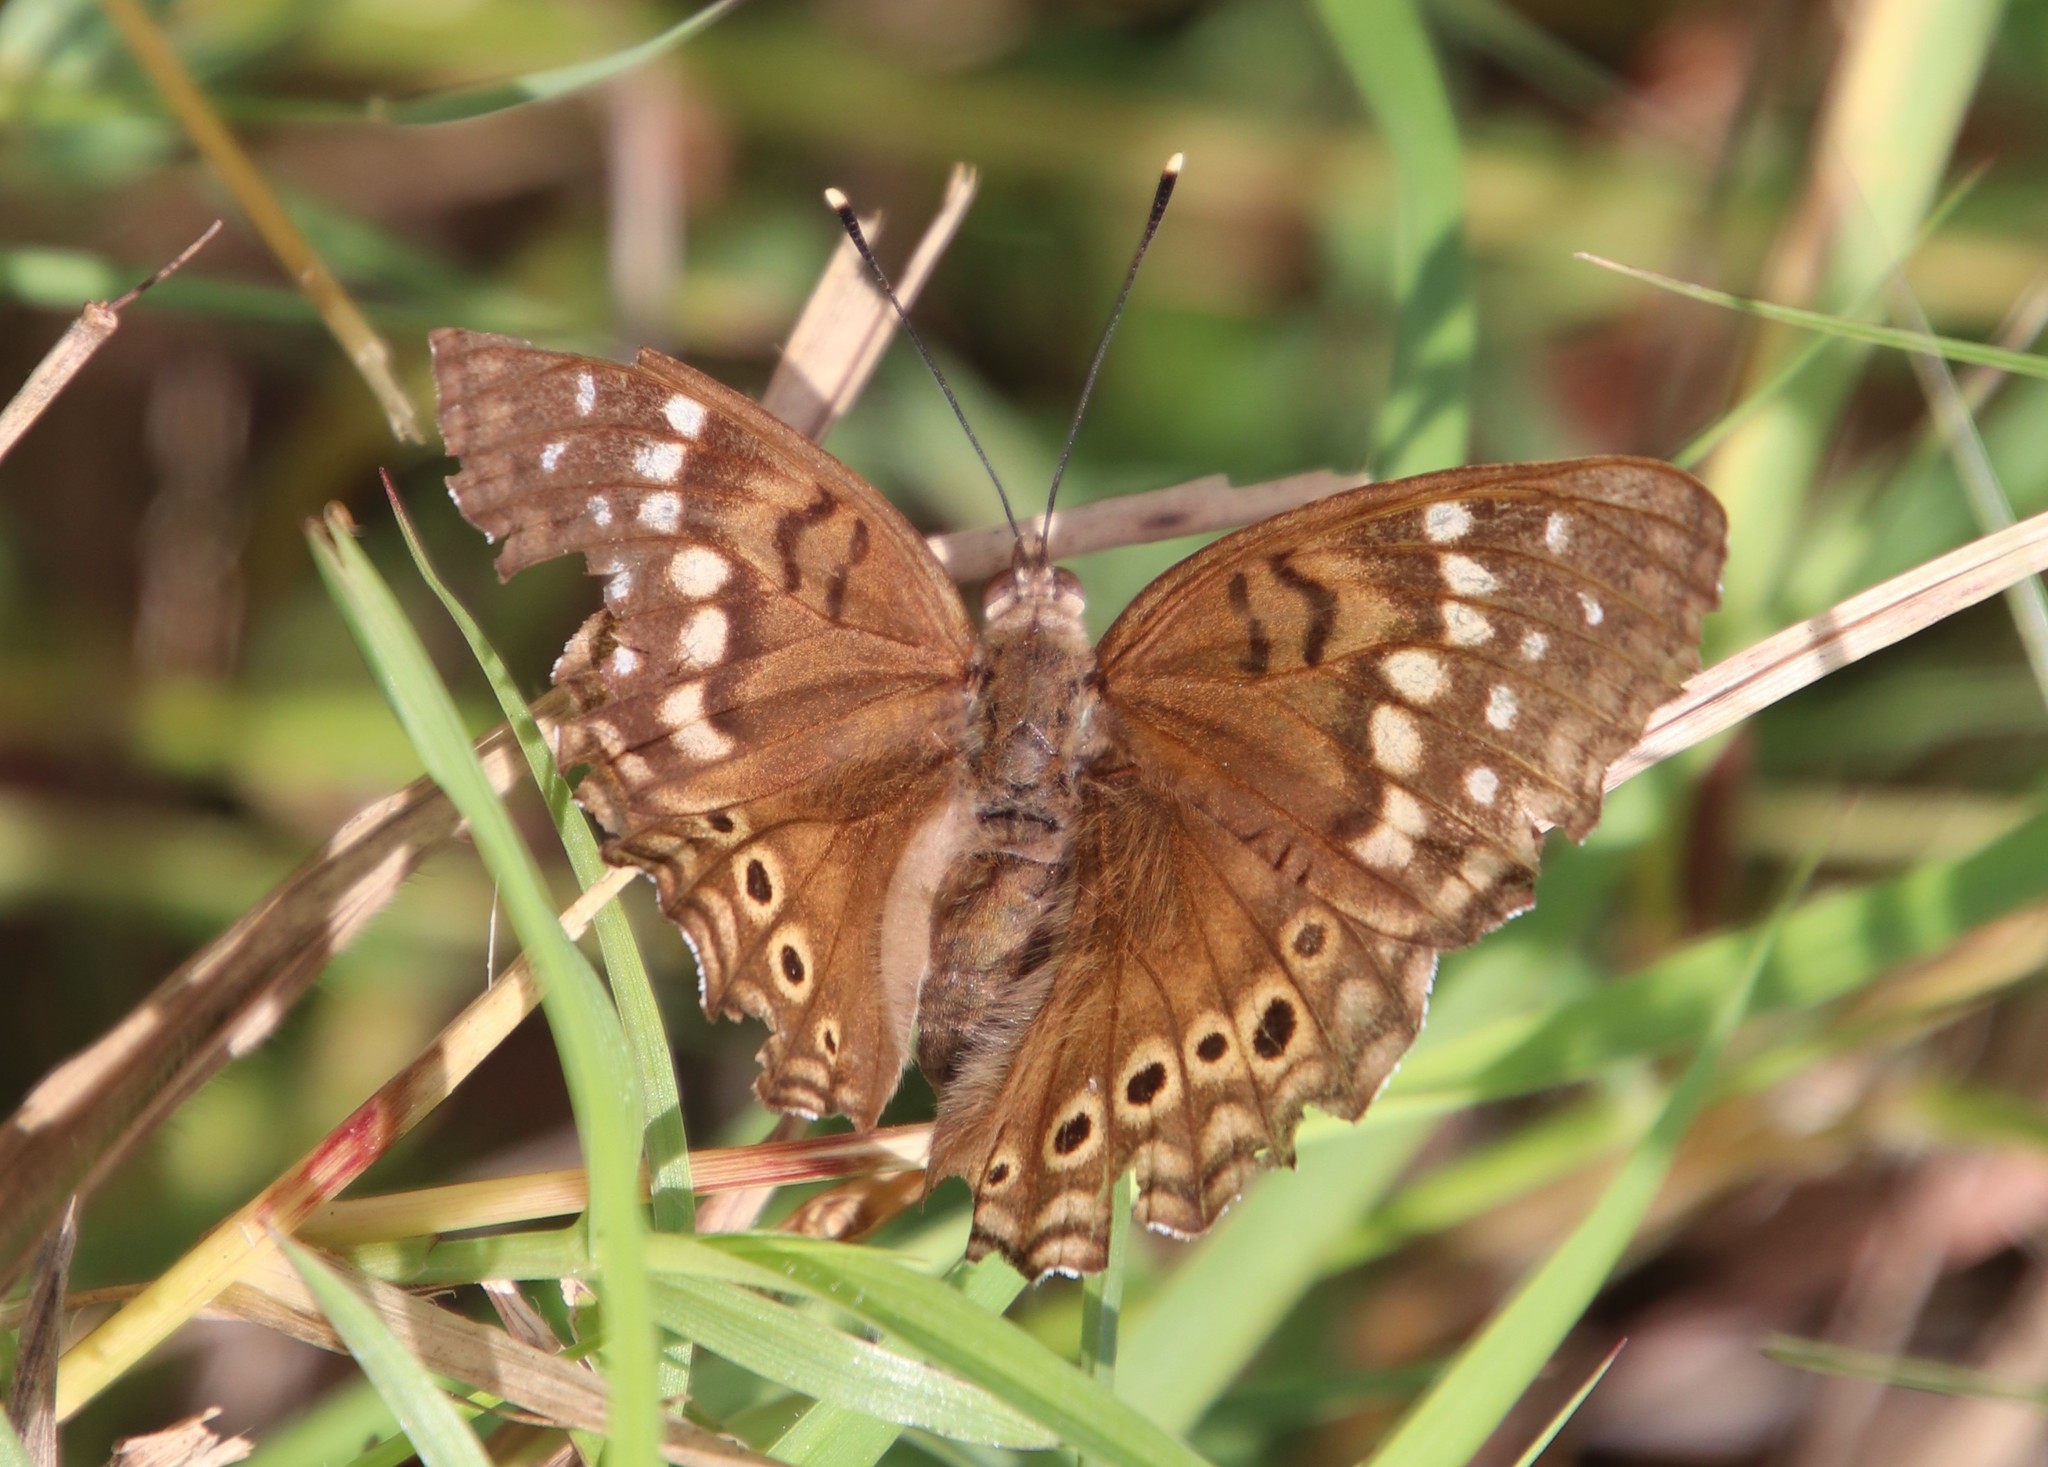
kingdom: Animalia
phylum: Arthropoda
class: Insecta
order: Lepidoptera
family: Nymphalidae
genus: Asterocampa
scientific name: Asterocampa clyton
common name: Tawny emperor
